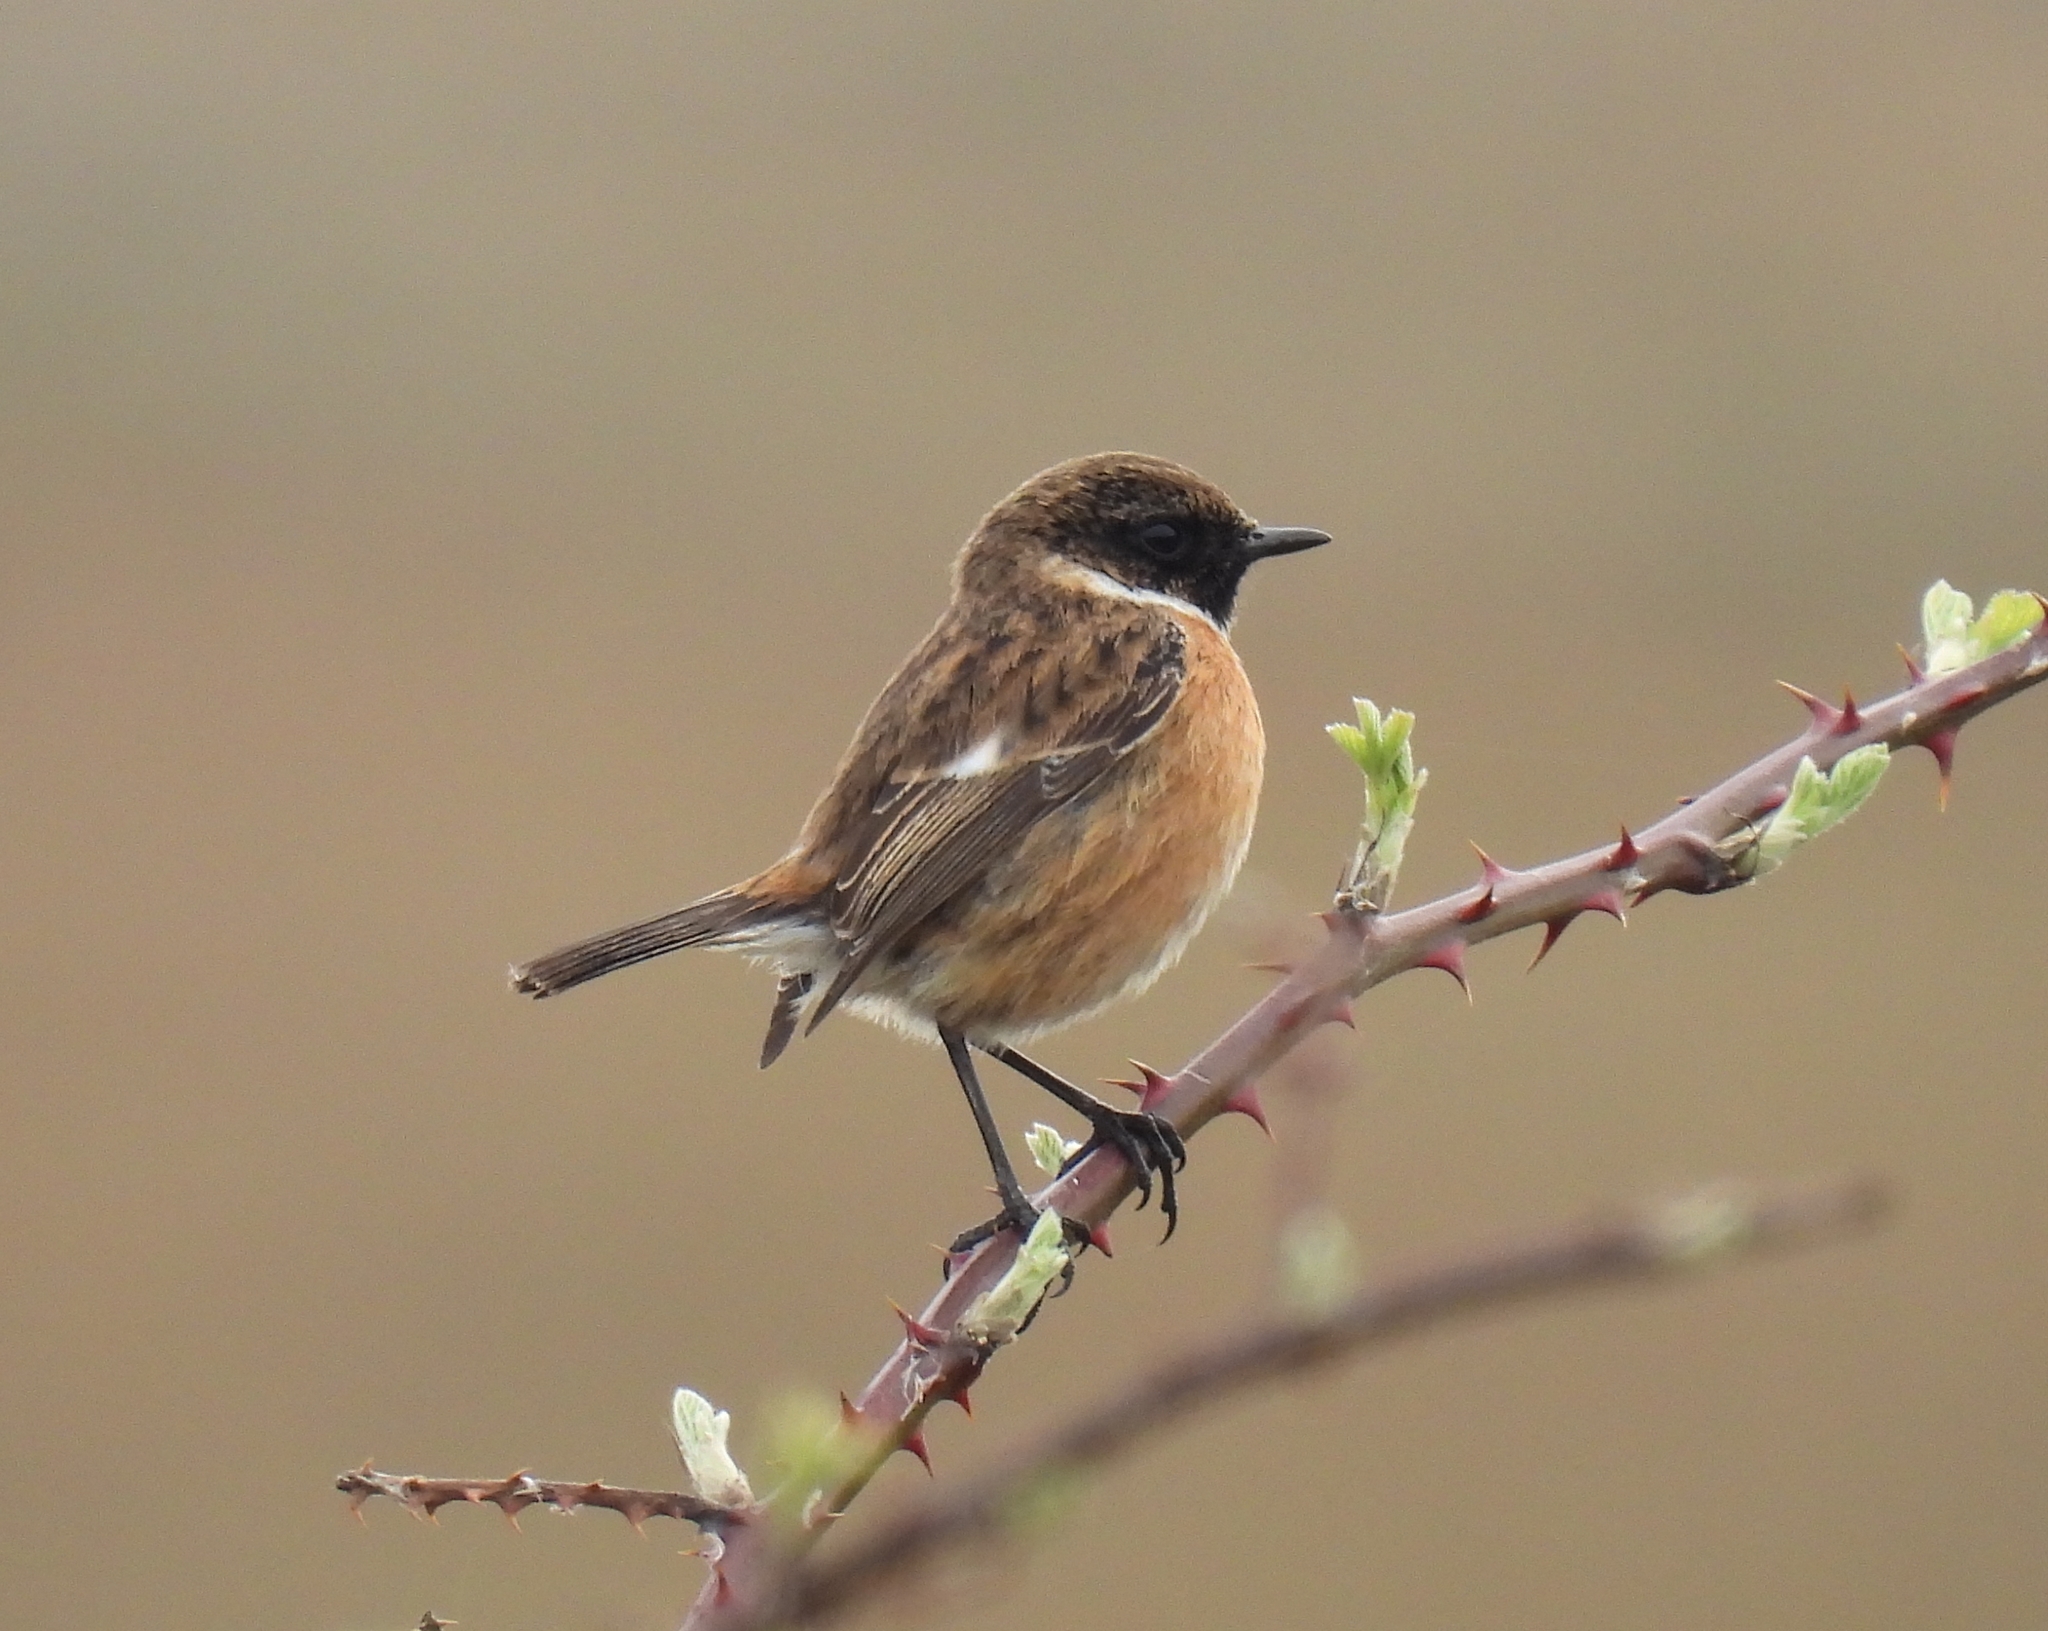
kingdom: Animalia
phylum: Chordata
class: Aves
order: Passeriformes
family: Muscicapidae
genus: Saxicola
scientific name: Saxicola rubicola
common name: European stonechat
